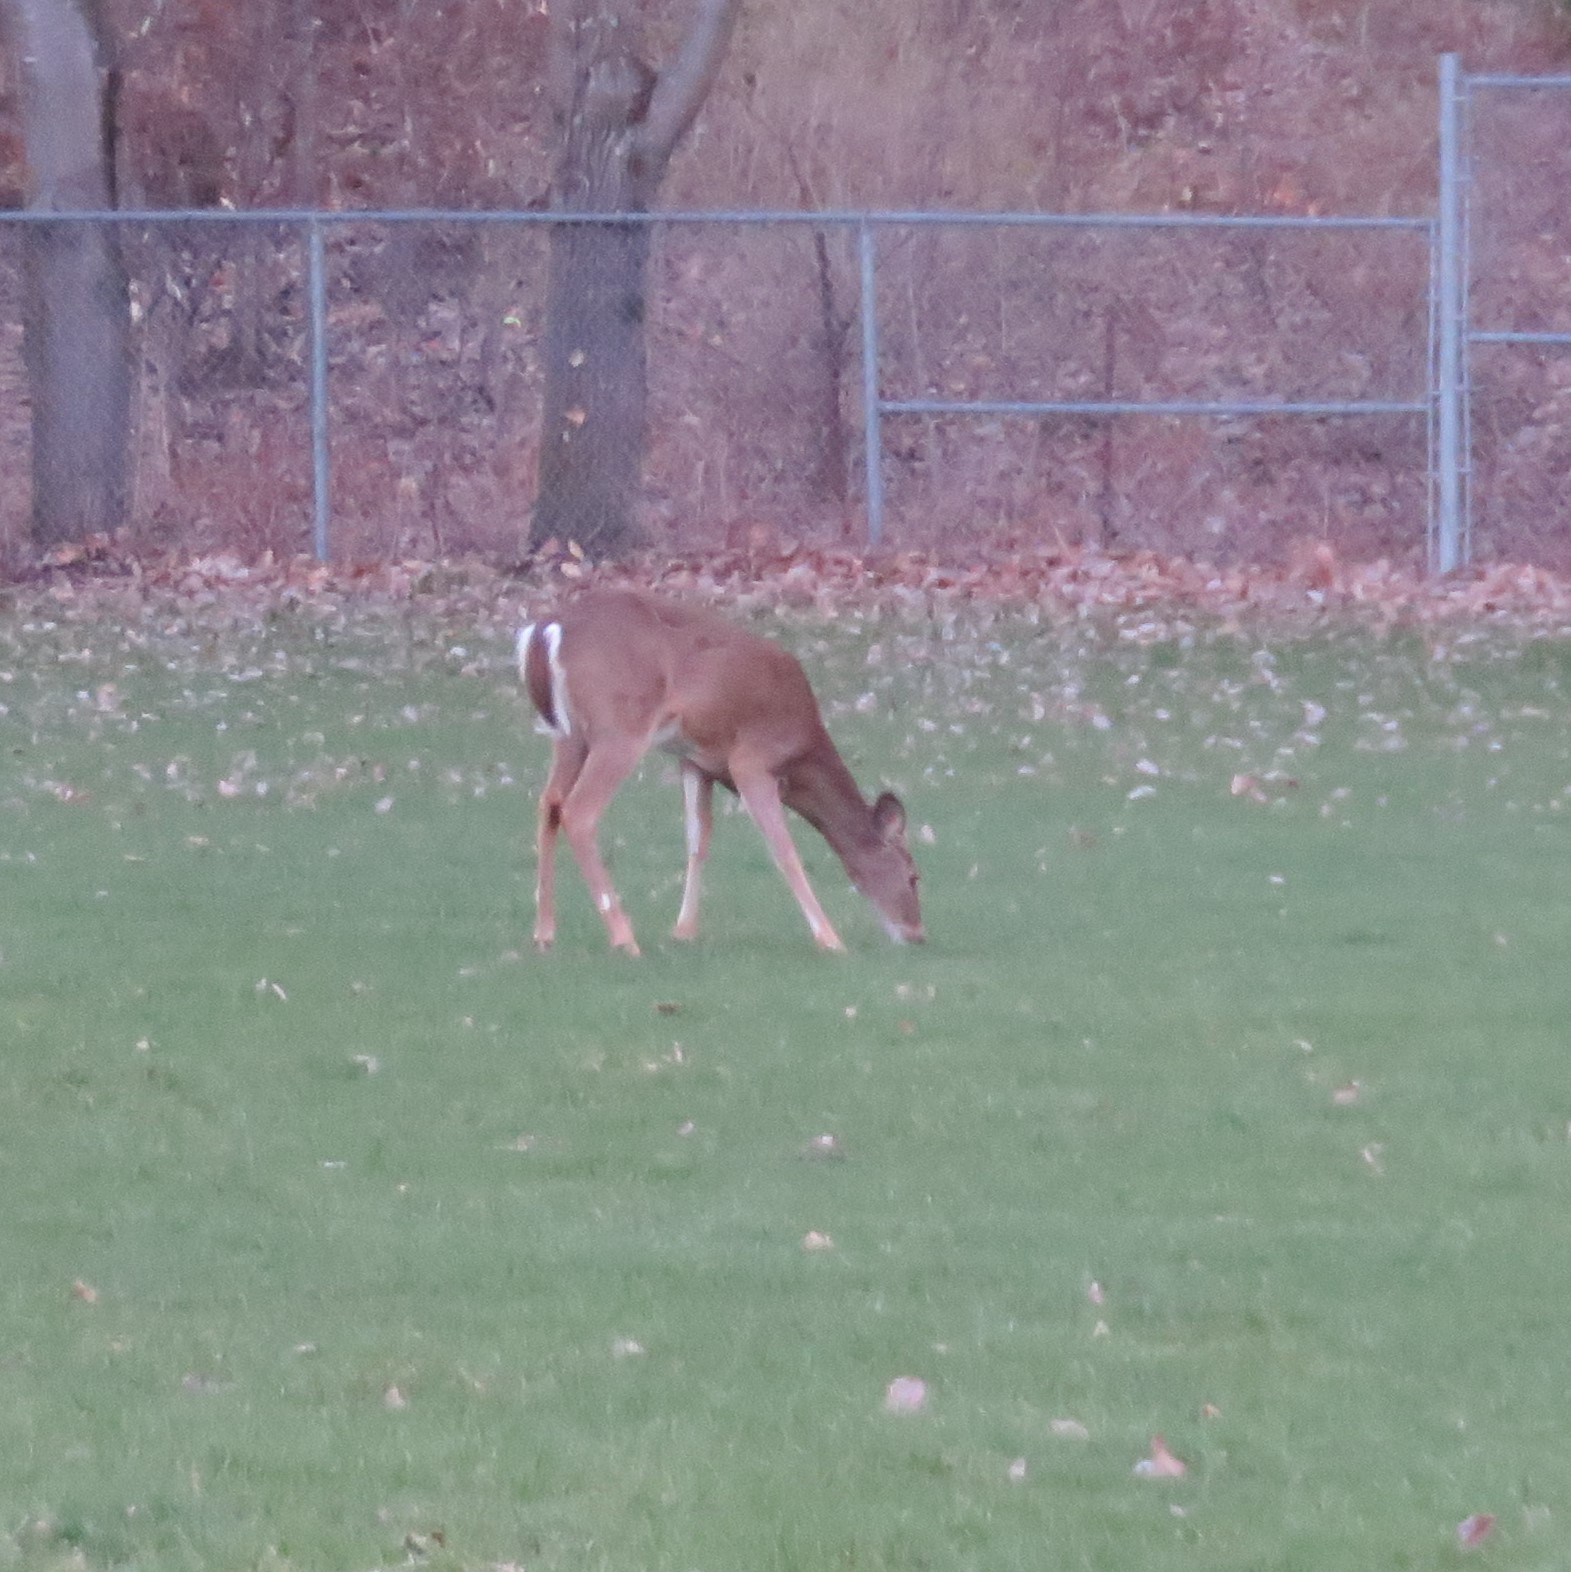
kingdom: Animalia
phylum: Chordata
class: Mammalia
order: Artiodactyla
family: Cervidae
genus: Odocoileus
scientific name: Odocoileus virginianus
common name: White-tailed deer
